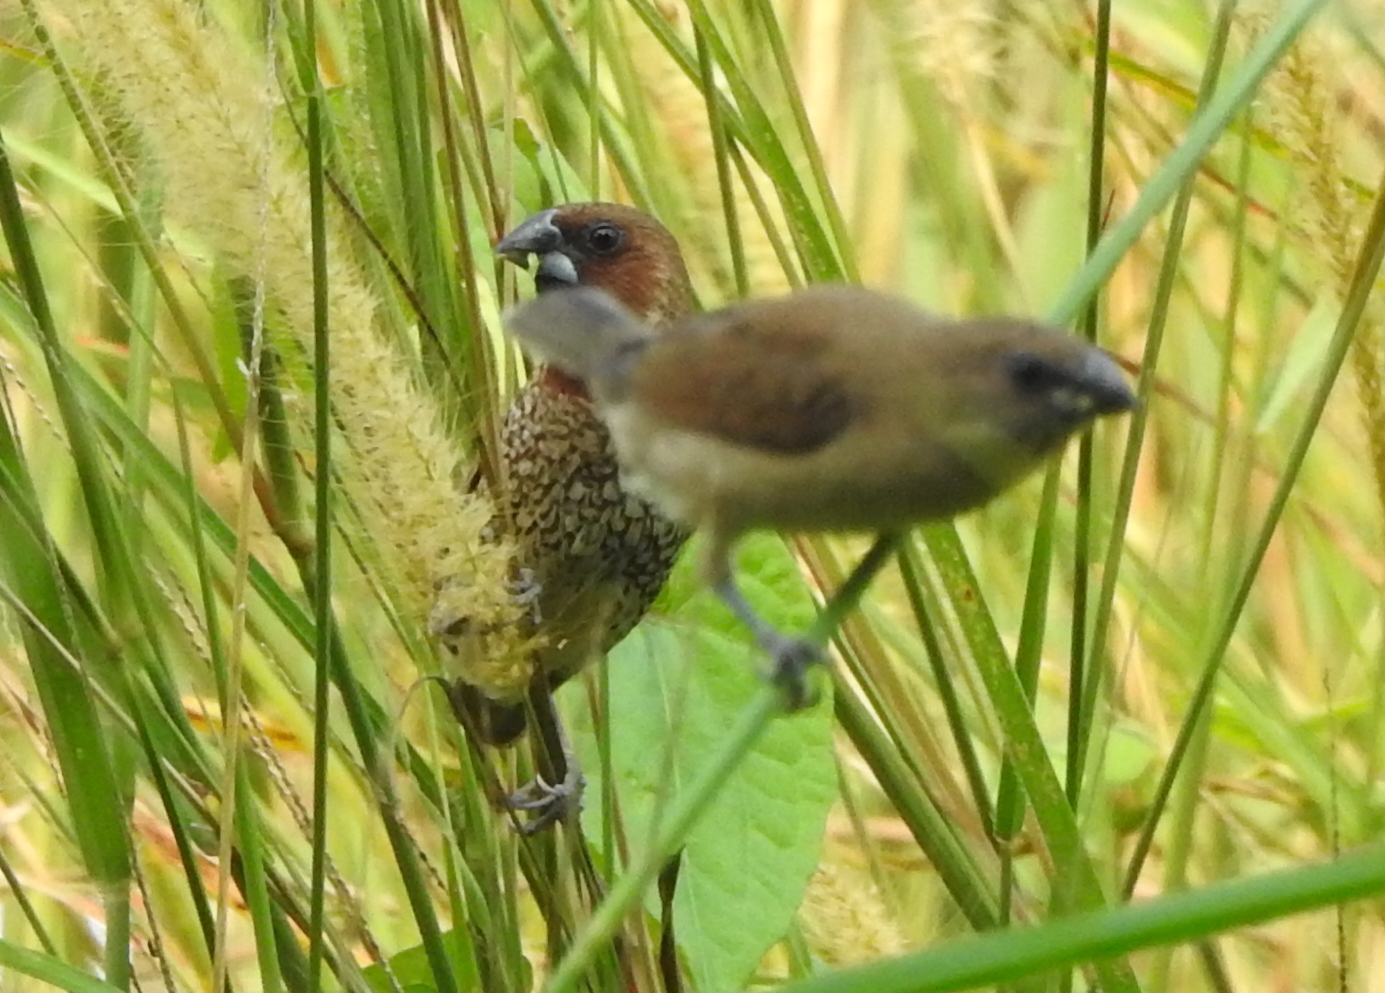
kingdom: Animalia
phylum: Chordata
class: Aves
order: Passeriformes
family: Estrildidae
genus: Lonchura
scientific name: Lonchura punctulata
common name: Scaly-breasted munia
